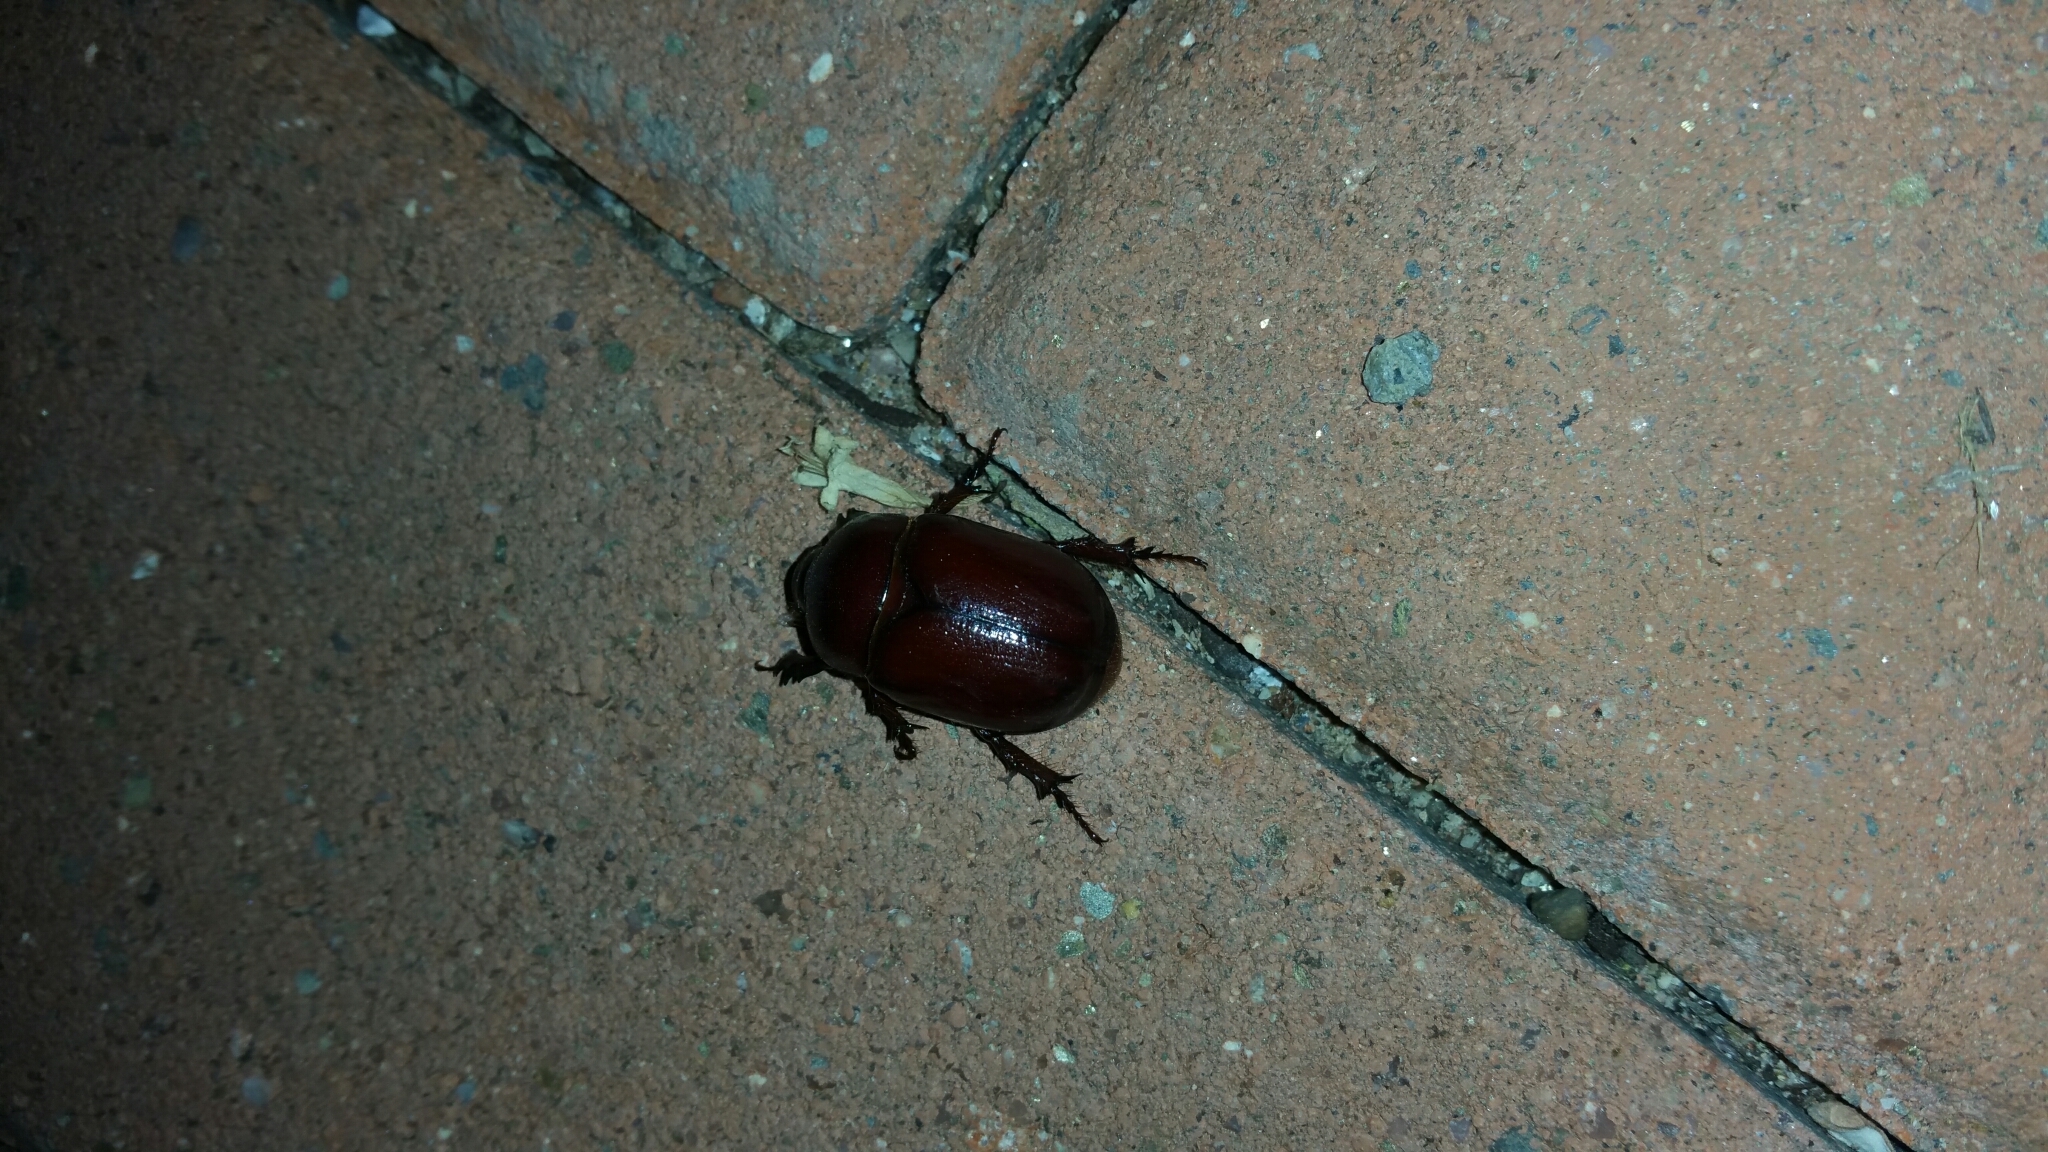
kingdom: Animalia
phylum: Arthropoda
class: Insecta
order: Coleoptera
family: Scarabaeidae
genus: Phyllognathus
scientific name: Phyllognathus excavatus
